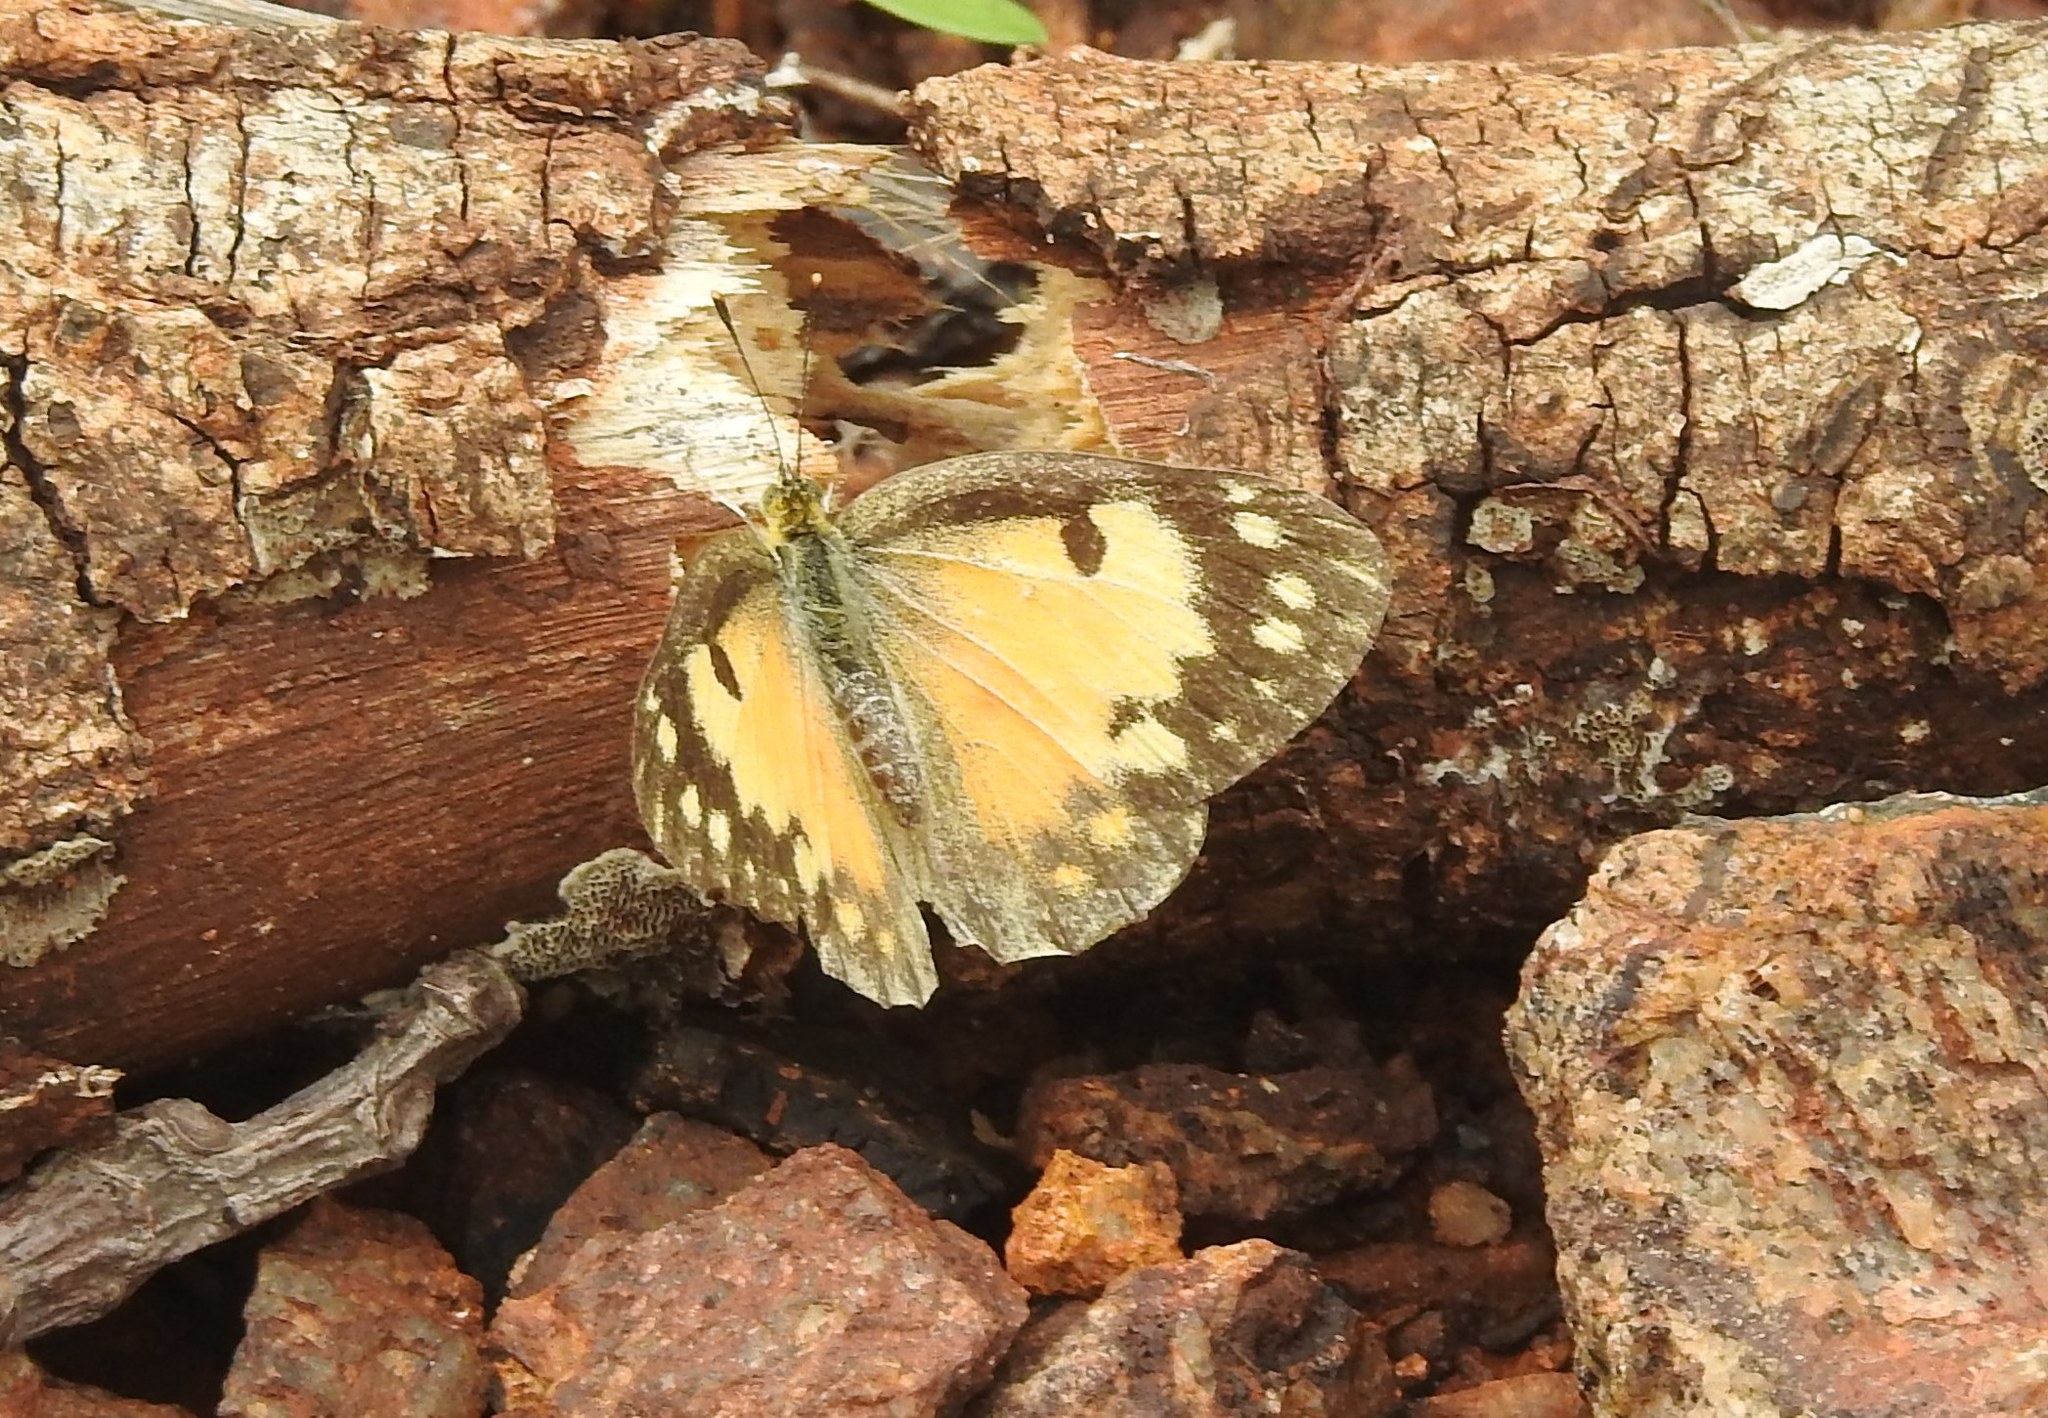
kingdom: Animalia
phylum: Arthropoda
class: Insecta
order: Lepidoptera
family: Pieridae
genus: Colotis
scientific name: Colotis amata
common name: Small salmon arab
